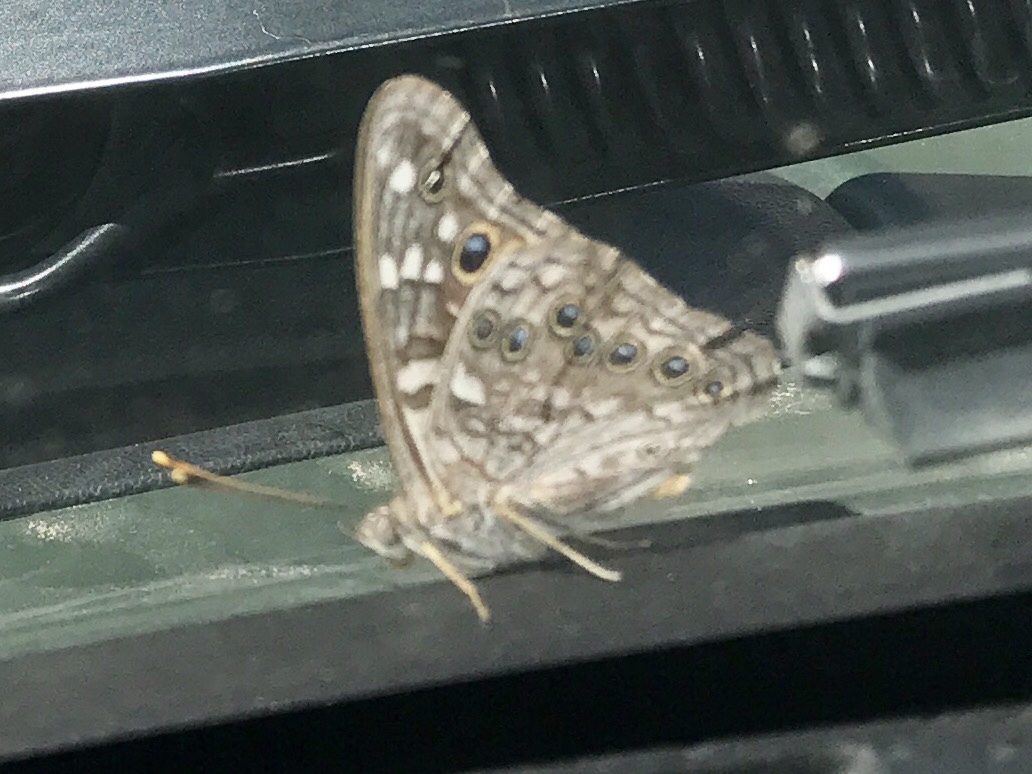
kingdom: Animalia
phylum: Arthropoda
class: Insecta
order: Lepidoptera
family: Nymphalidae
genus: Asterocampa
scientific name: Asterocampa leilia
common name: Empress leilia
